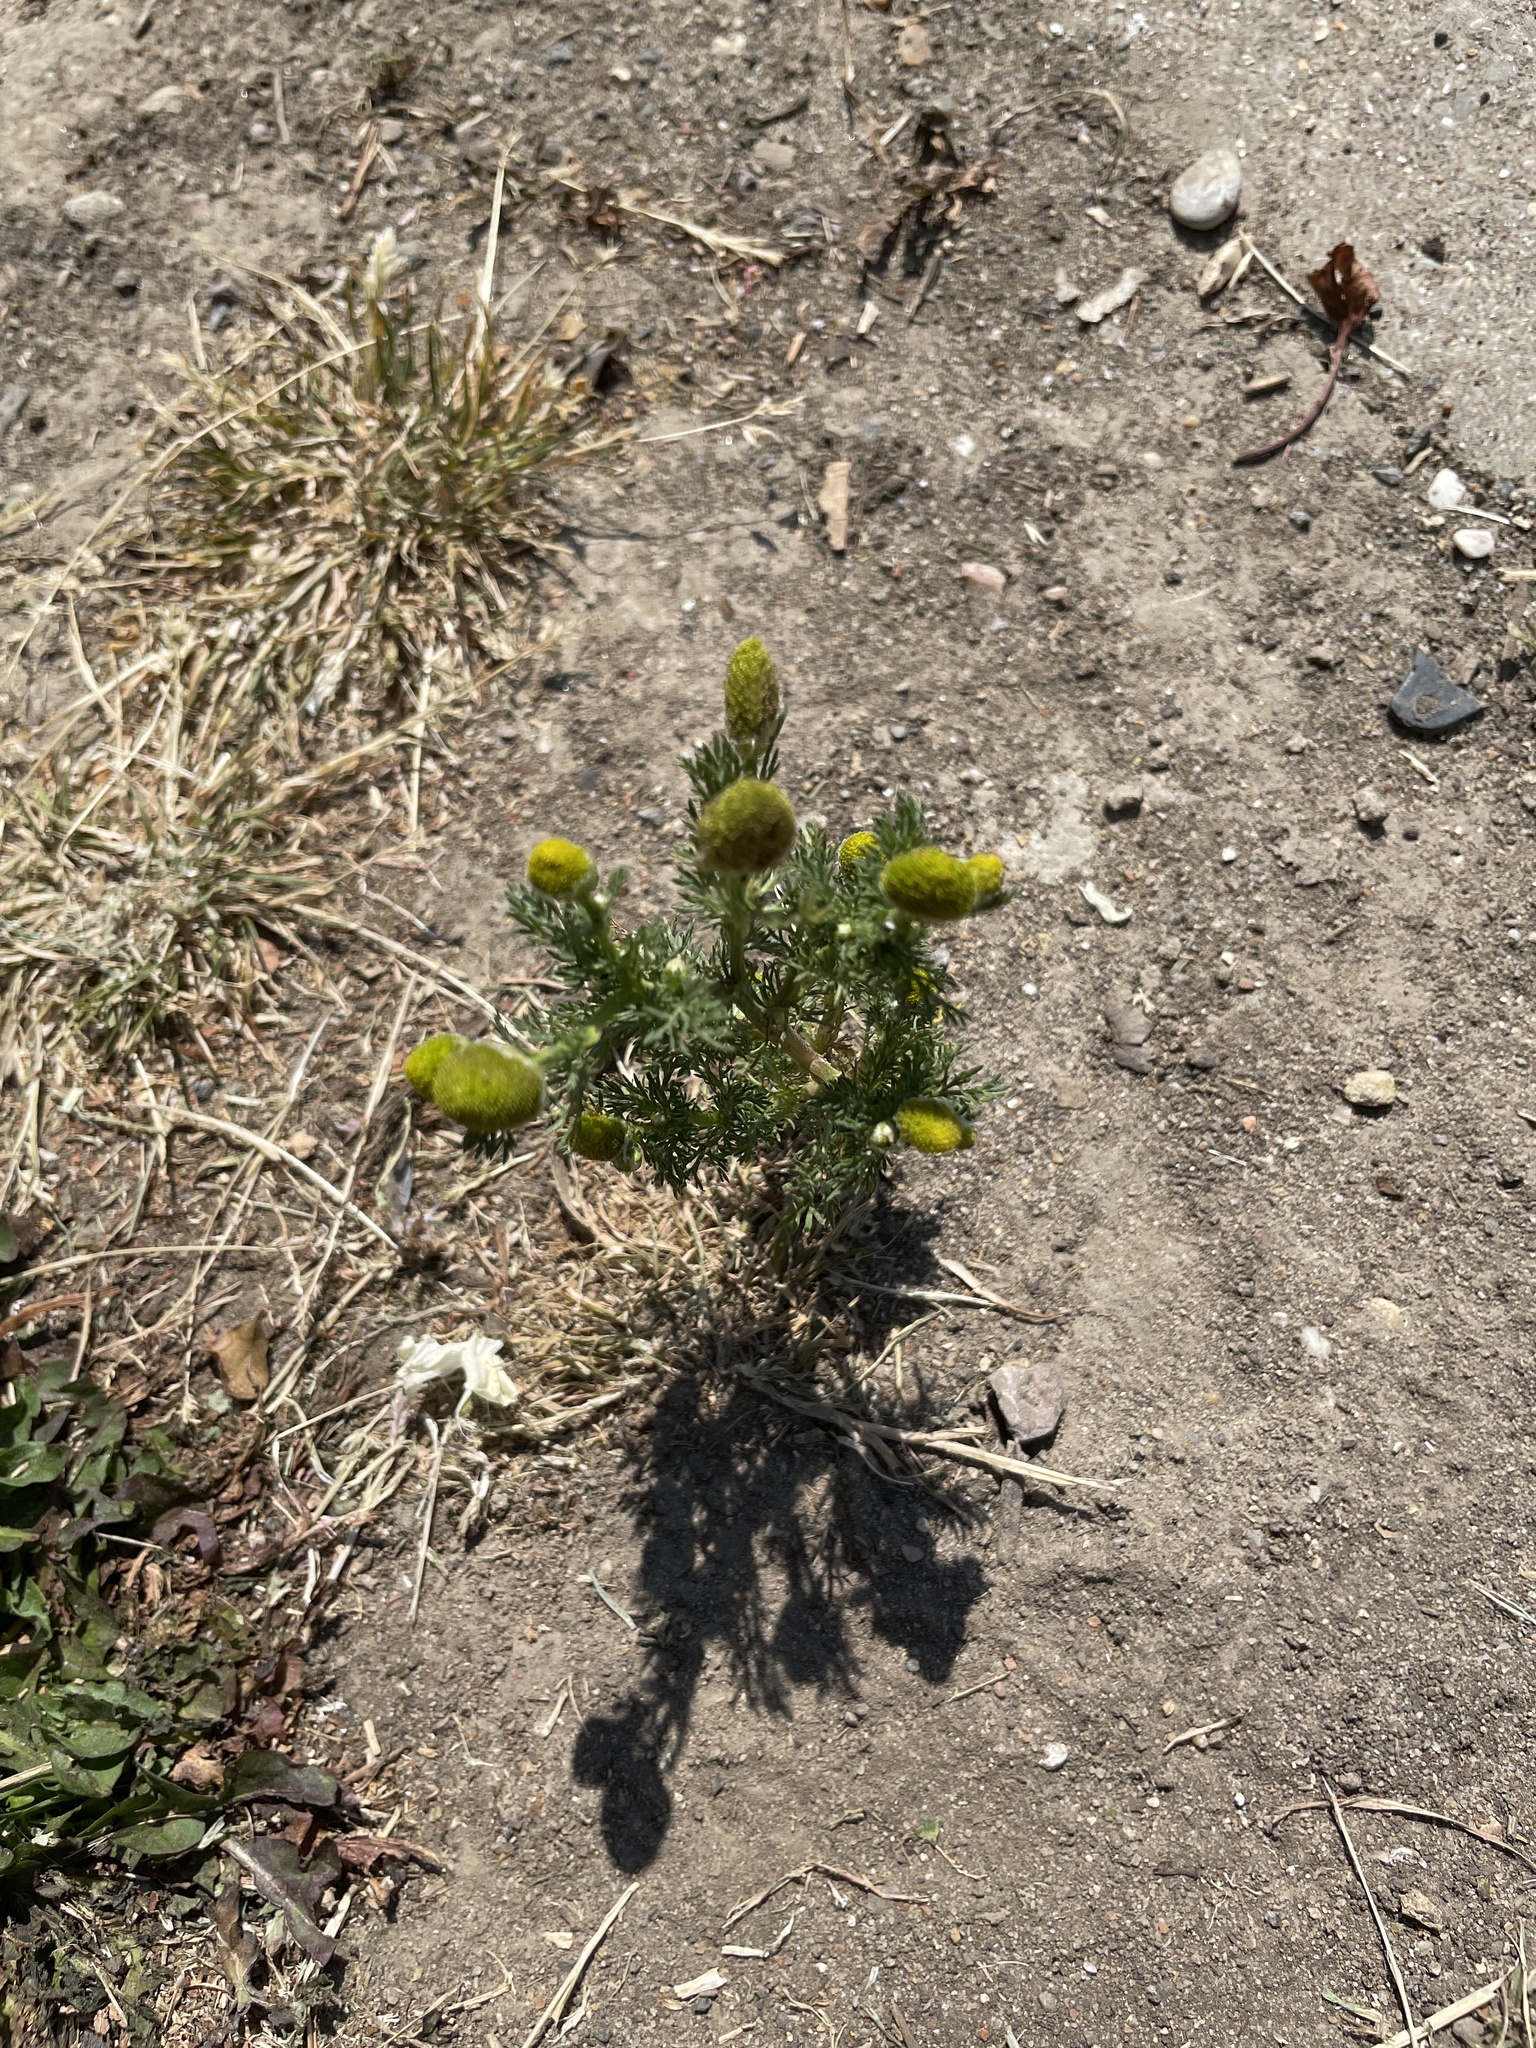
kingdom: Plantae
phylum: Tracheophyta
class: Magnoliopsida
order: Asterales
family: Asteraceae
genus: Matricaria
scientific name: Matricaria discoidea
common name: Disc mayweed
